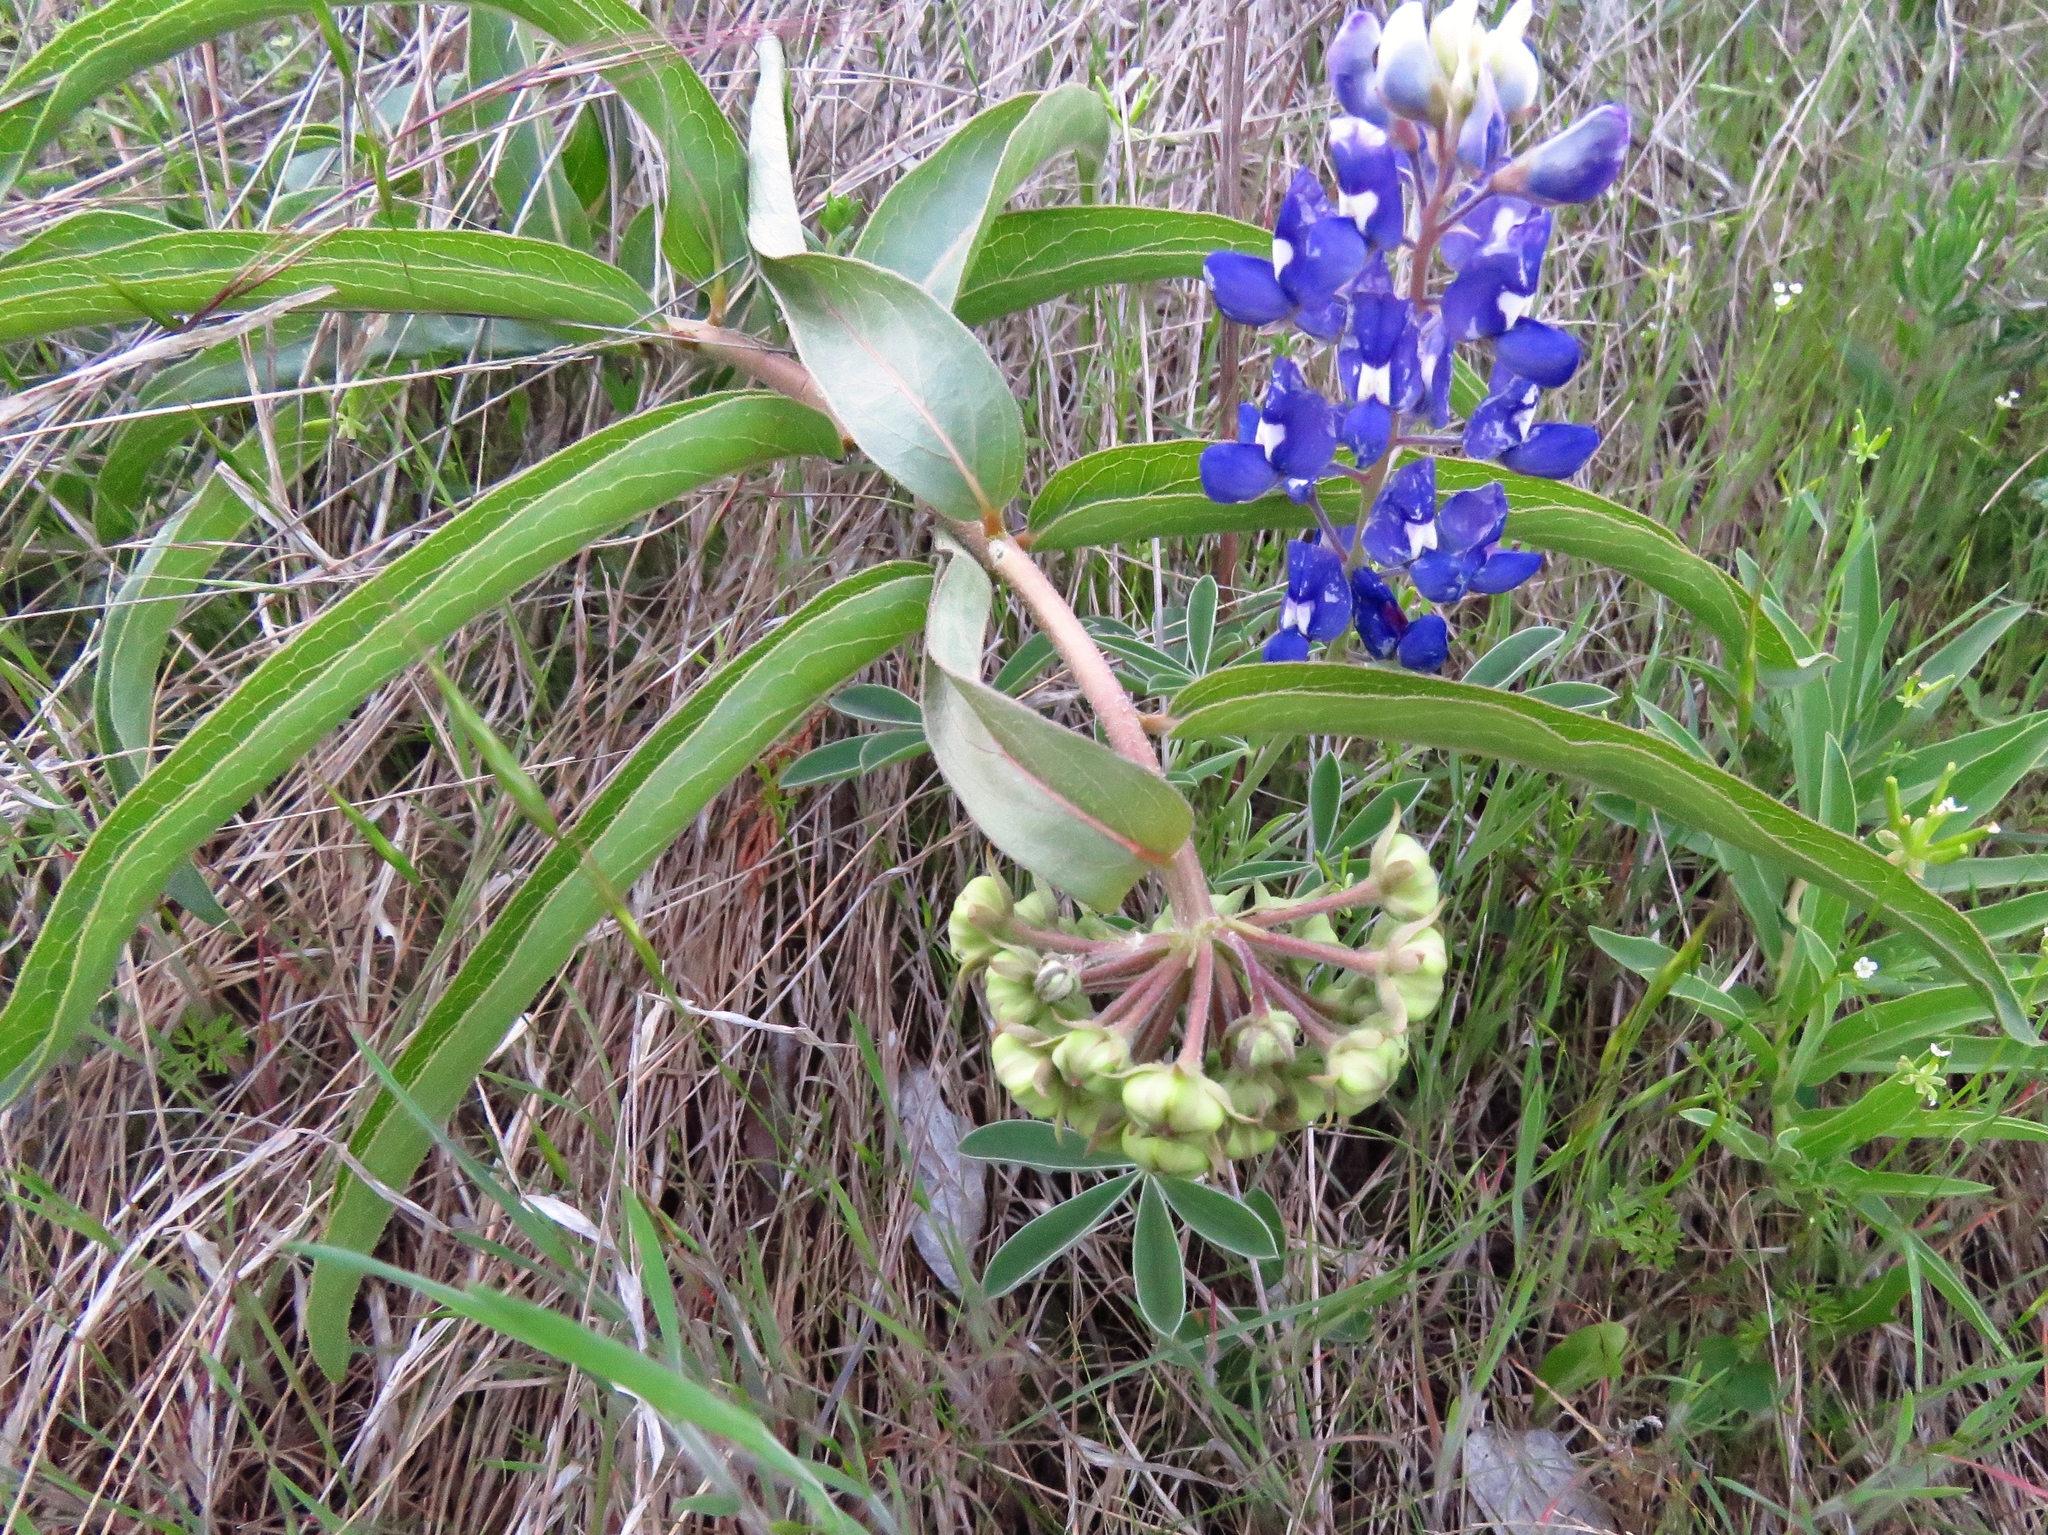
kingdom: Plantae
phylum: Tracheophyta
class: Magnoliopsida
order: Gentianales
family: Apocynaceae
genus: Asclepias
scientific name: Asclepias asperula
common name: Antelope horns
